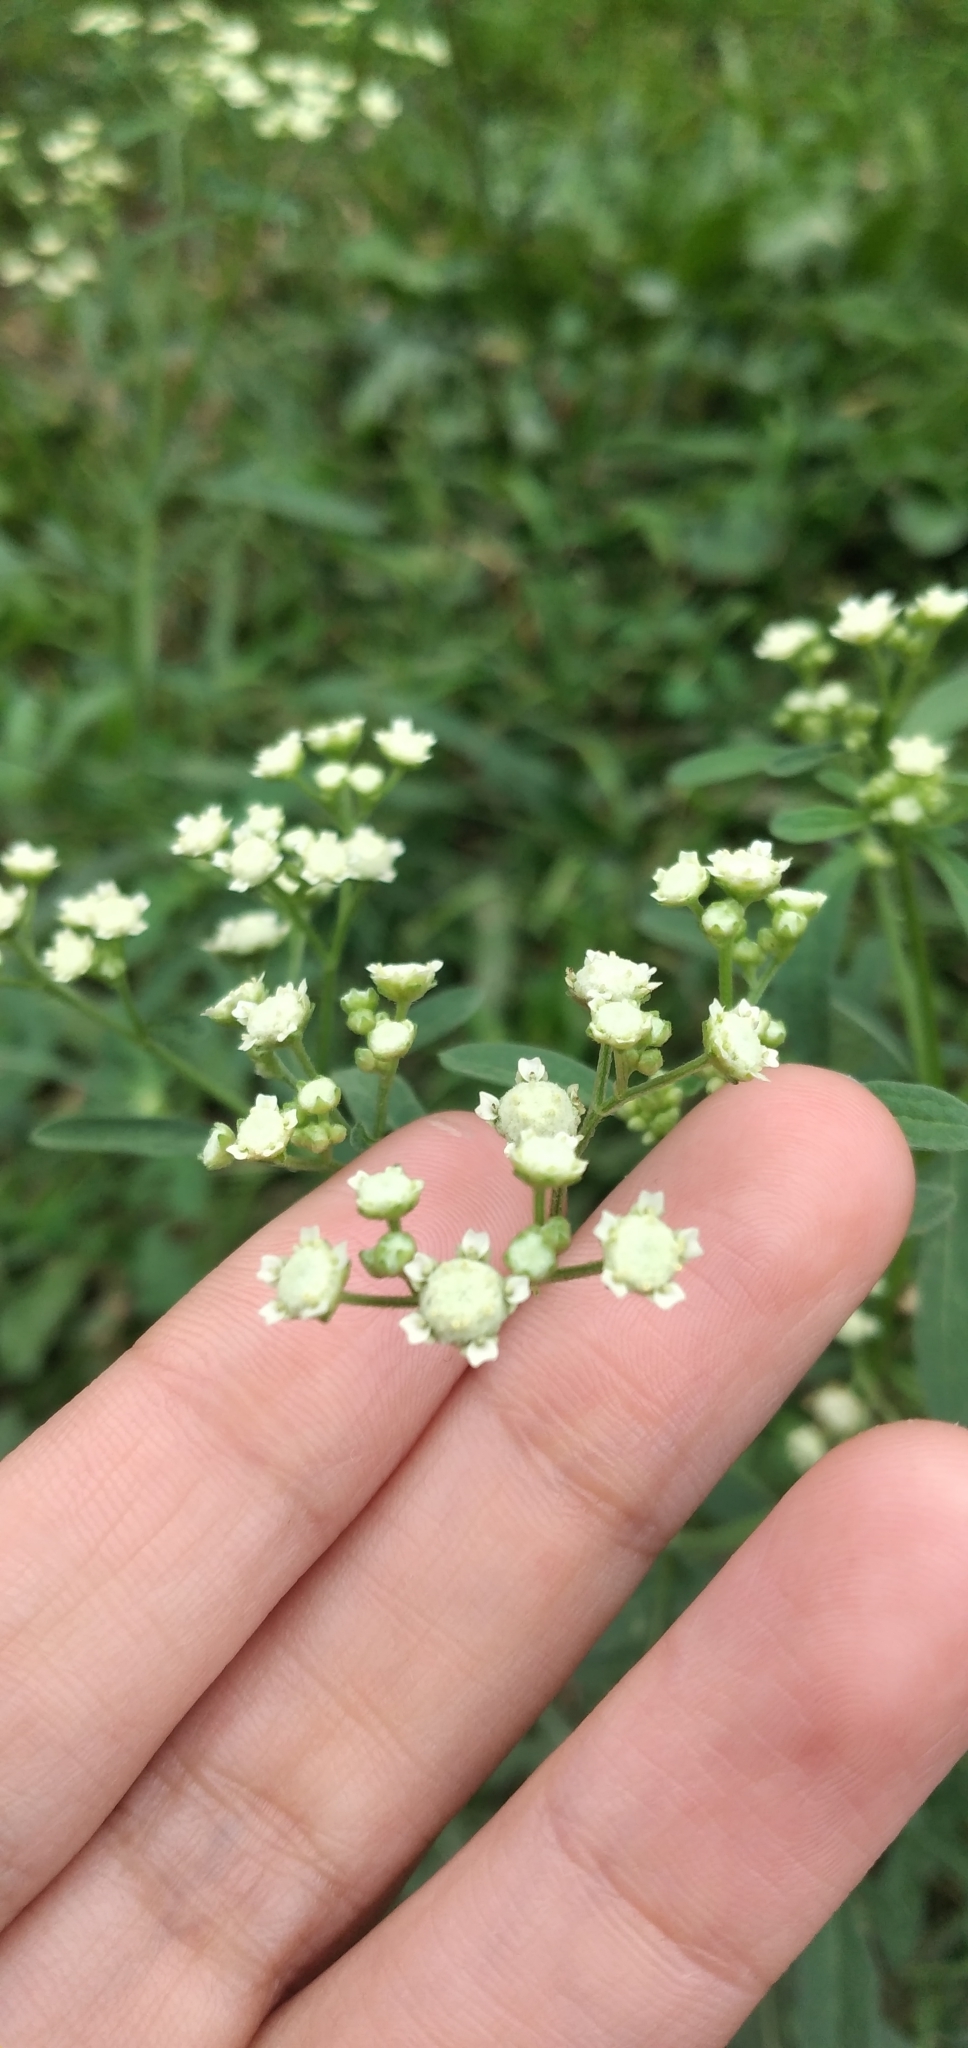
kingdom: Plantae
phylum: Tracheophyta
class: Magnoliopsida
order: Asterales
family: Asteraceae
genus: Parthenium
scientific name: Parthenium hysterophorus
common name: Santa maria feverfew
